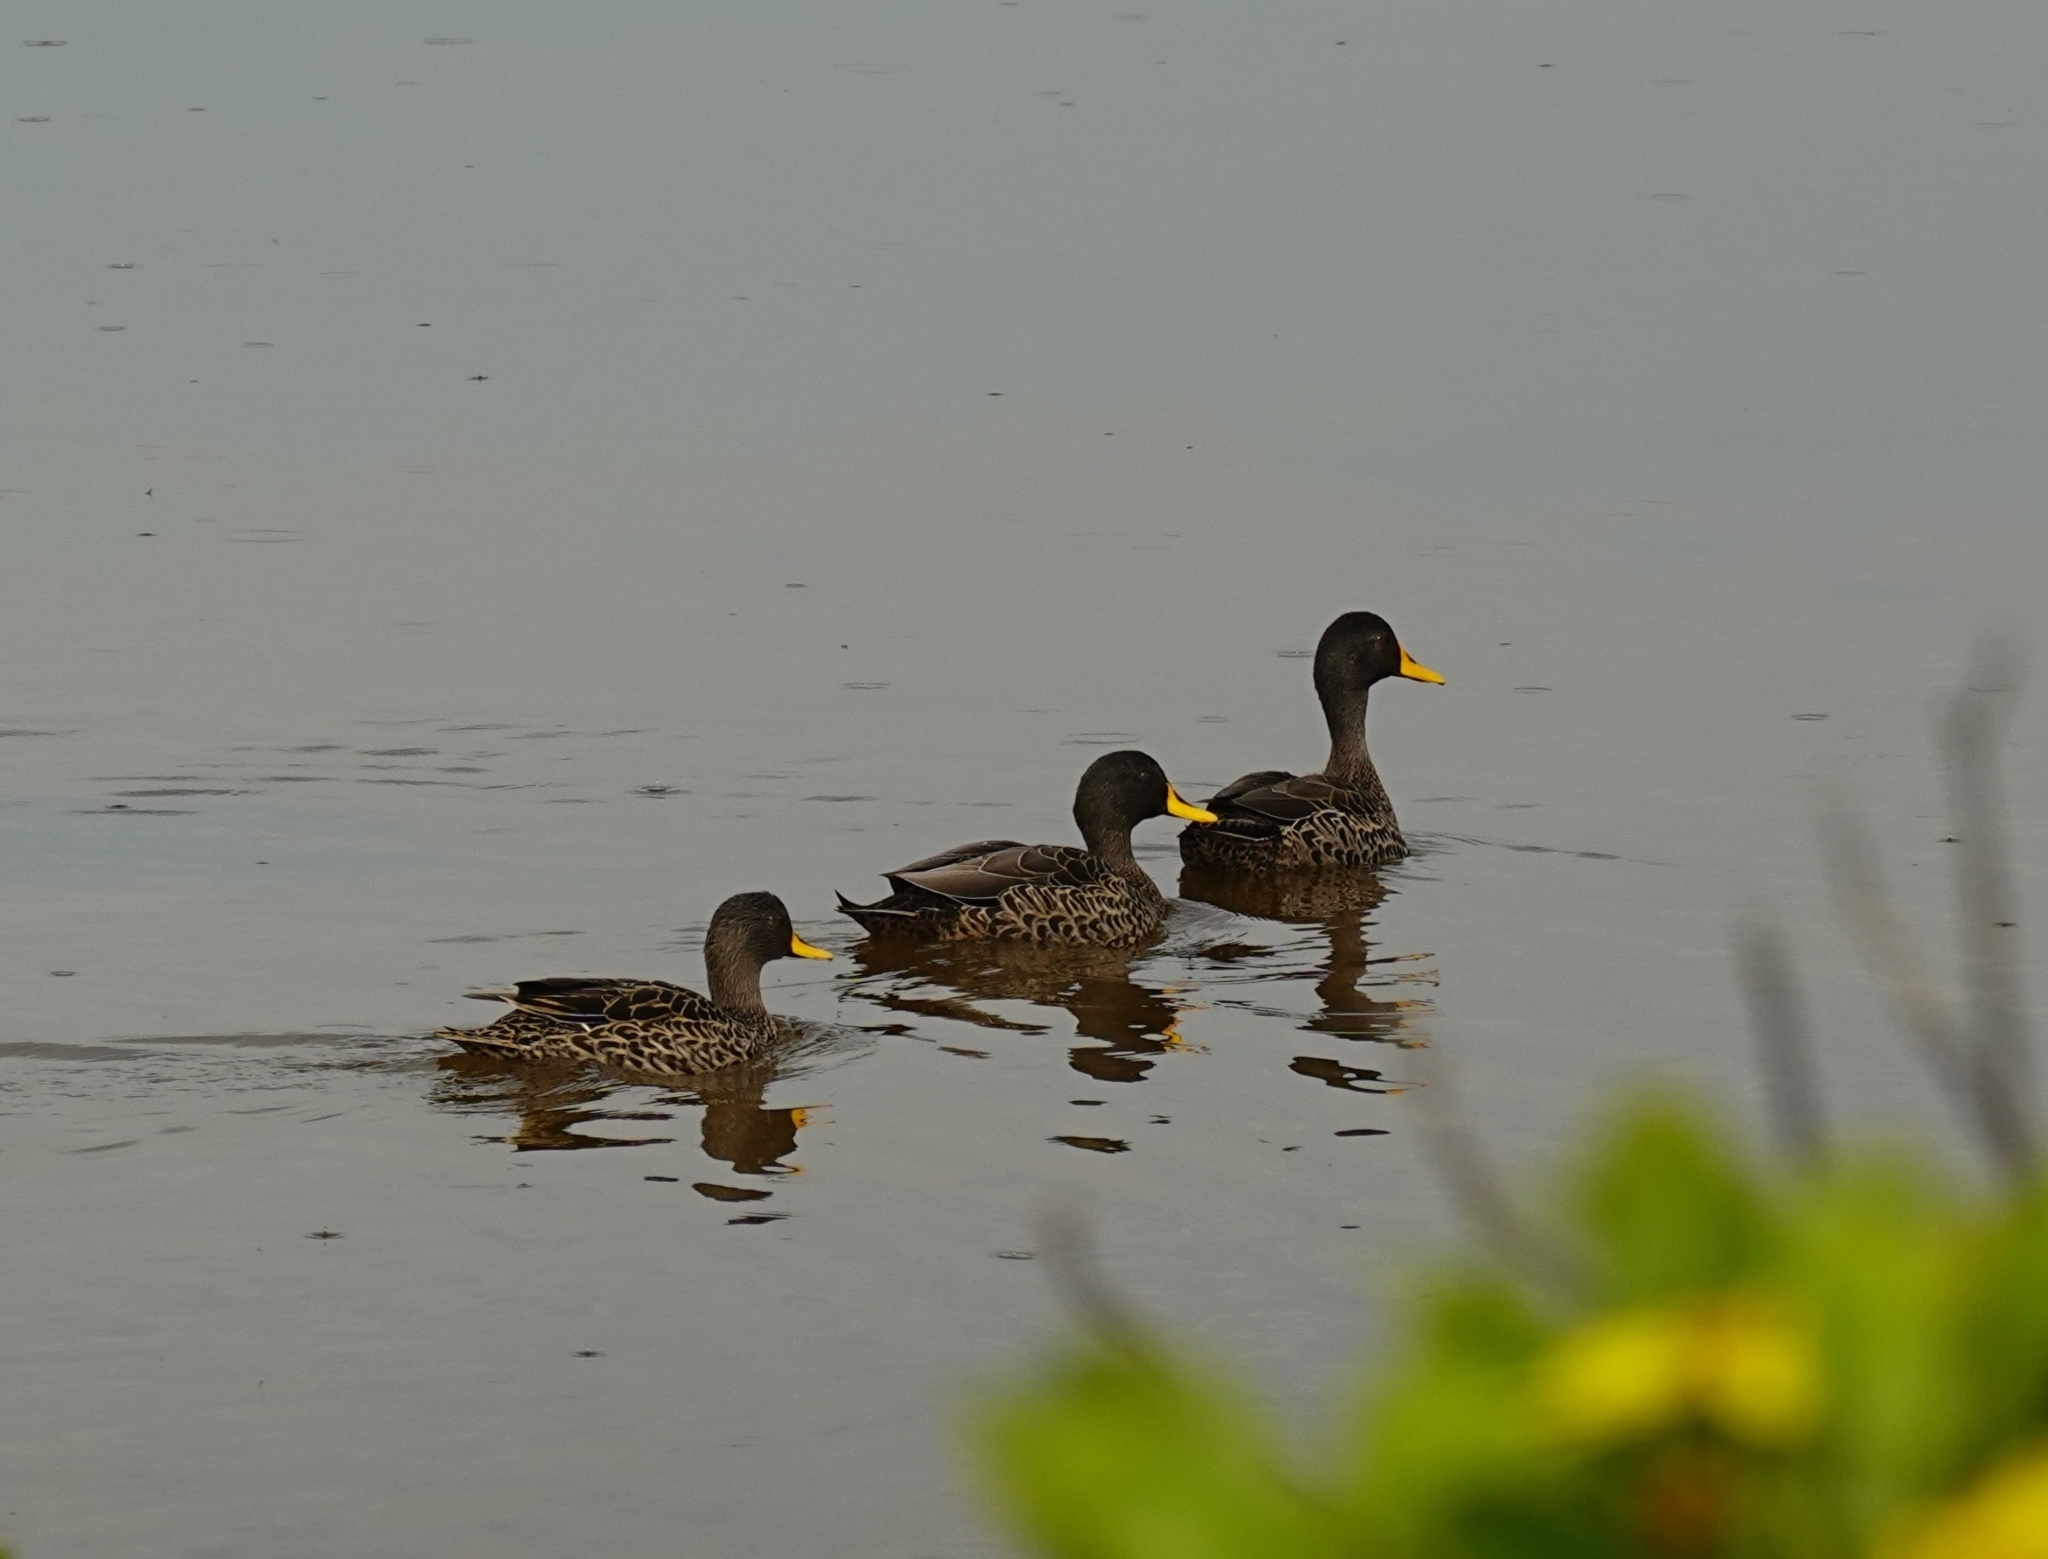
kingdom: Animalia
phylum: Chordata
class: Aves
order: Anseriformes
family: Anatidae
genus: Anas
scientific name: Anas undulata
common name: Yellow-billed duck
